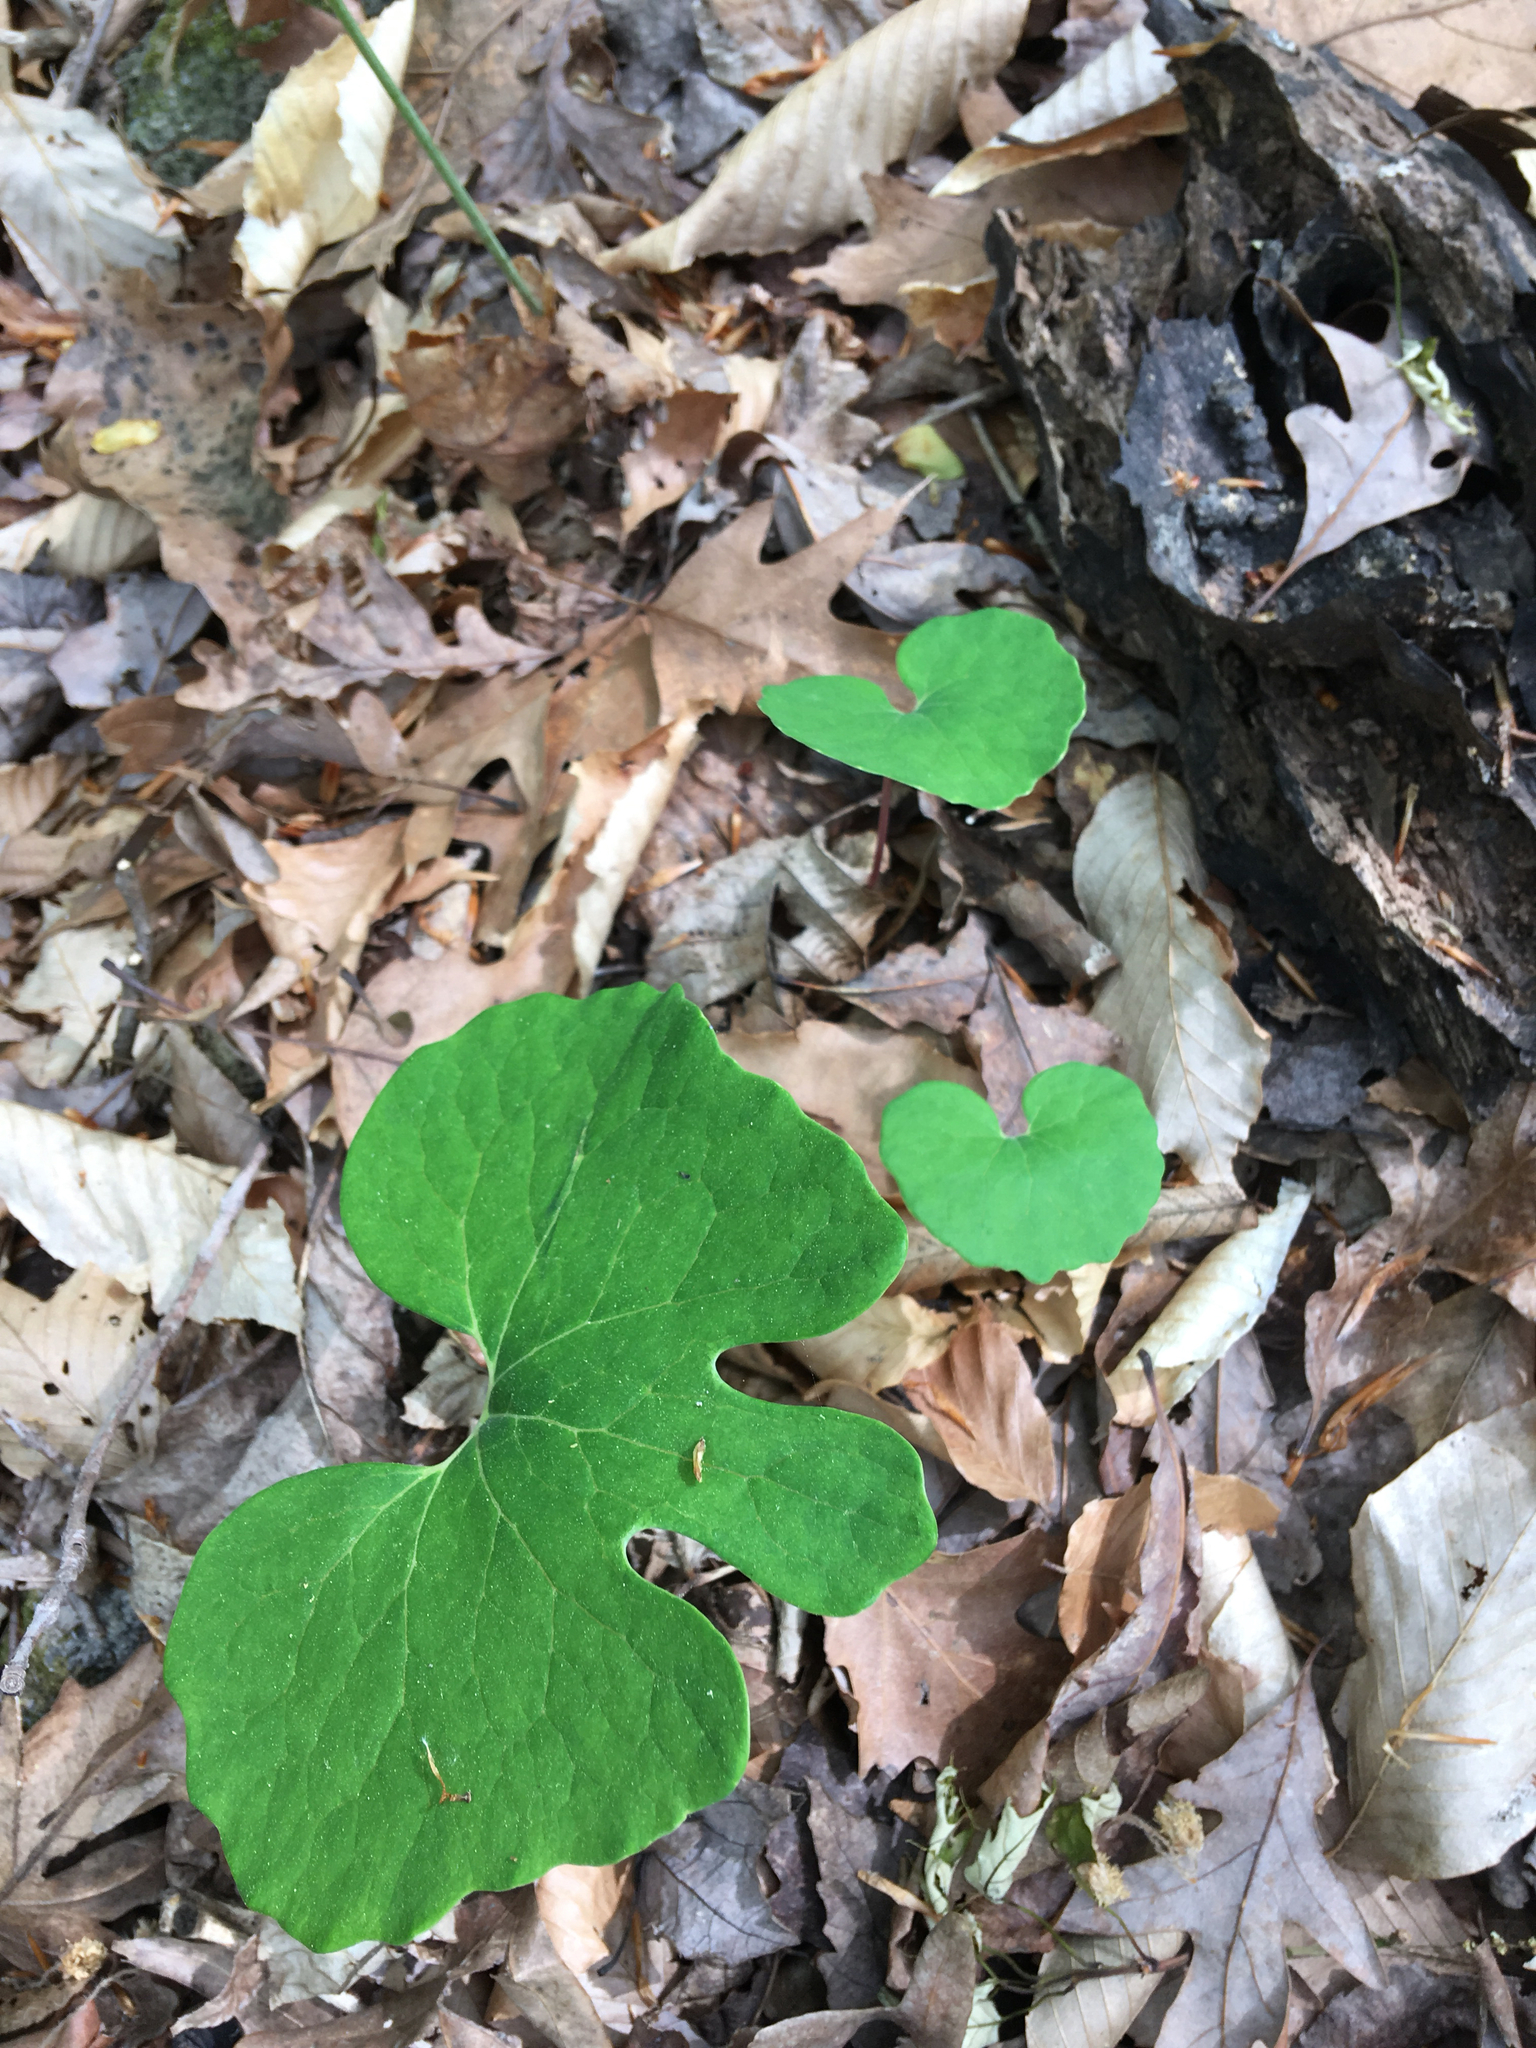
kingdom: Plantae
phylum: Tracheophyta
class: Magnoliopsida
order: Ranunculales
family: Papaveraceae
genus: Sanguinaria
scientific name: Sanguinaria canadensis
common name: Bloodroot
